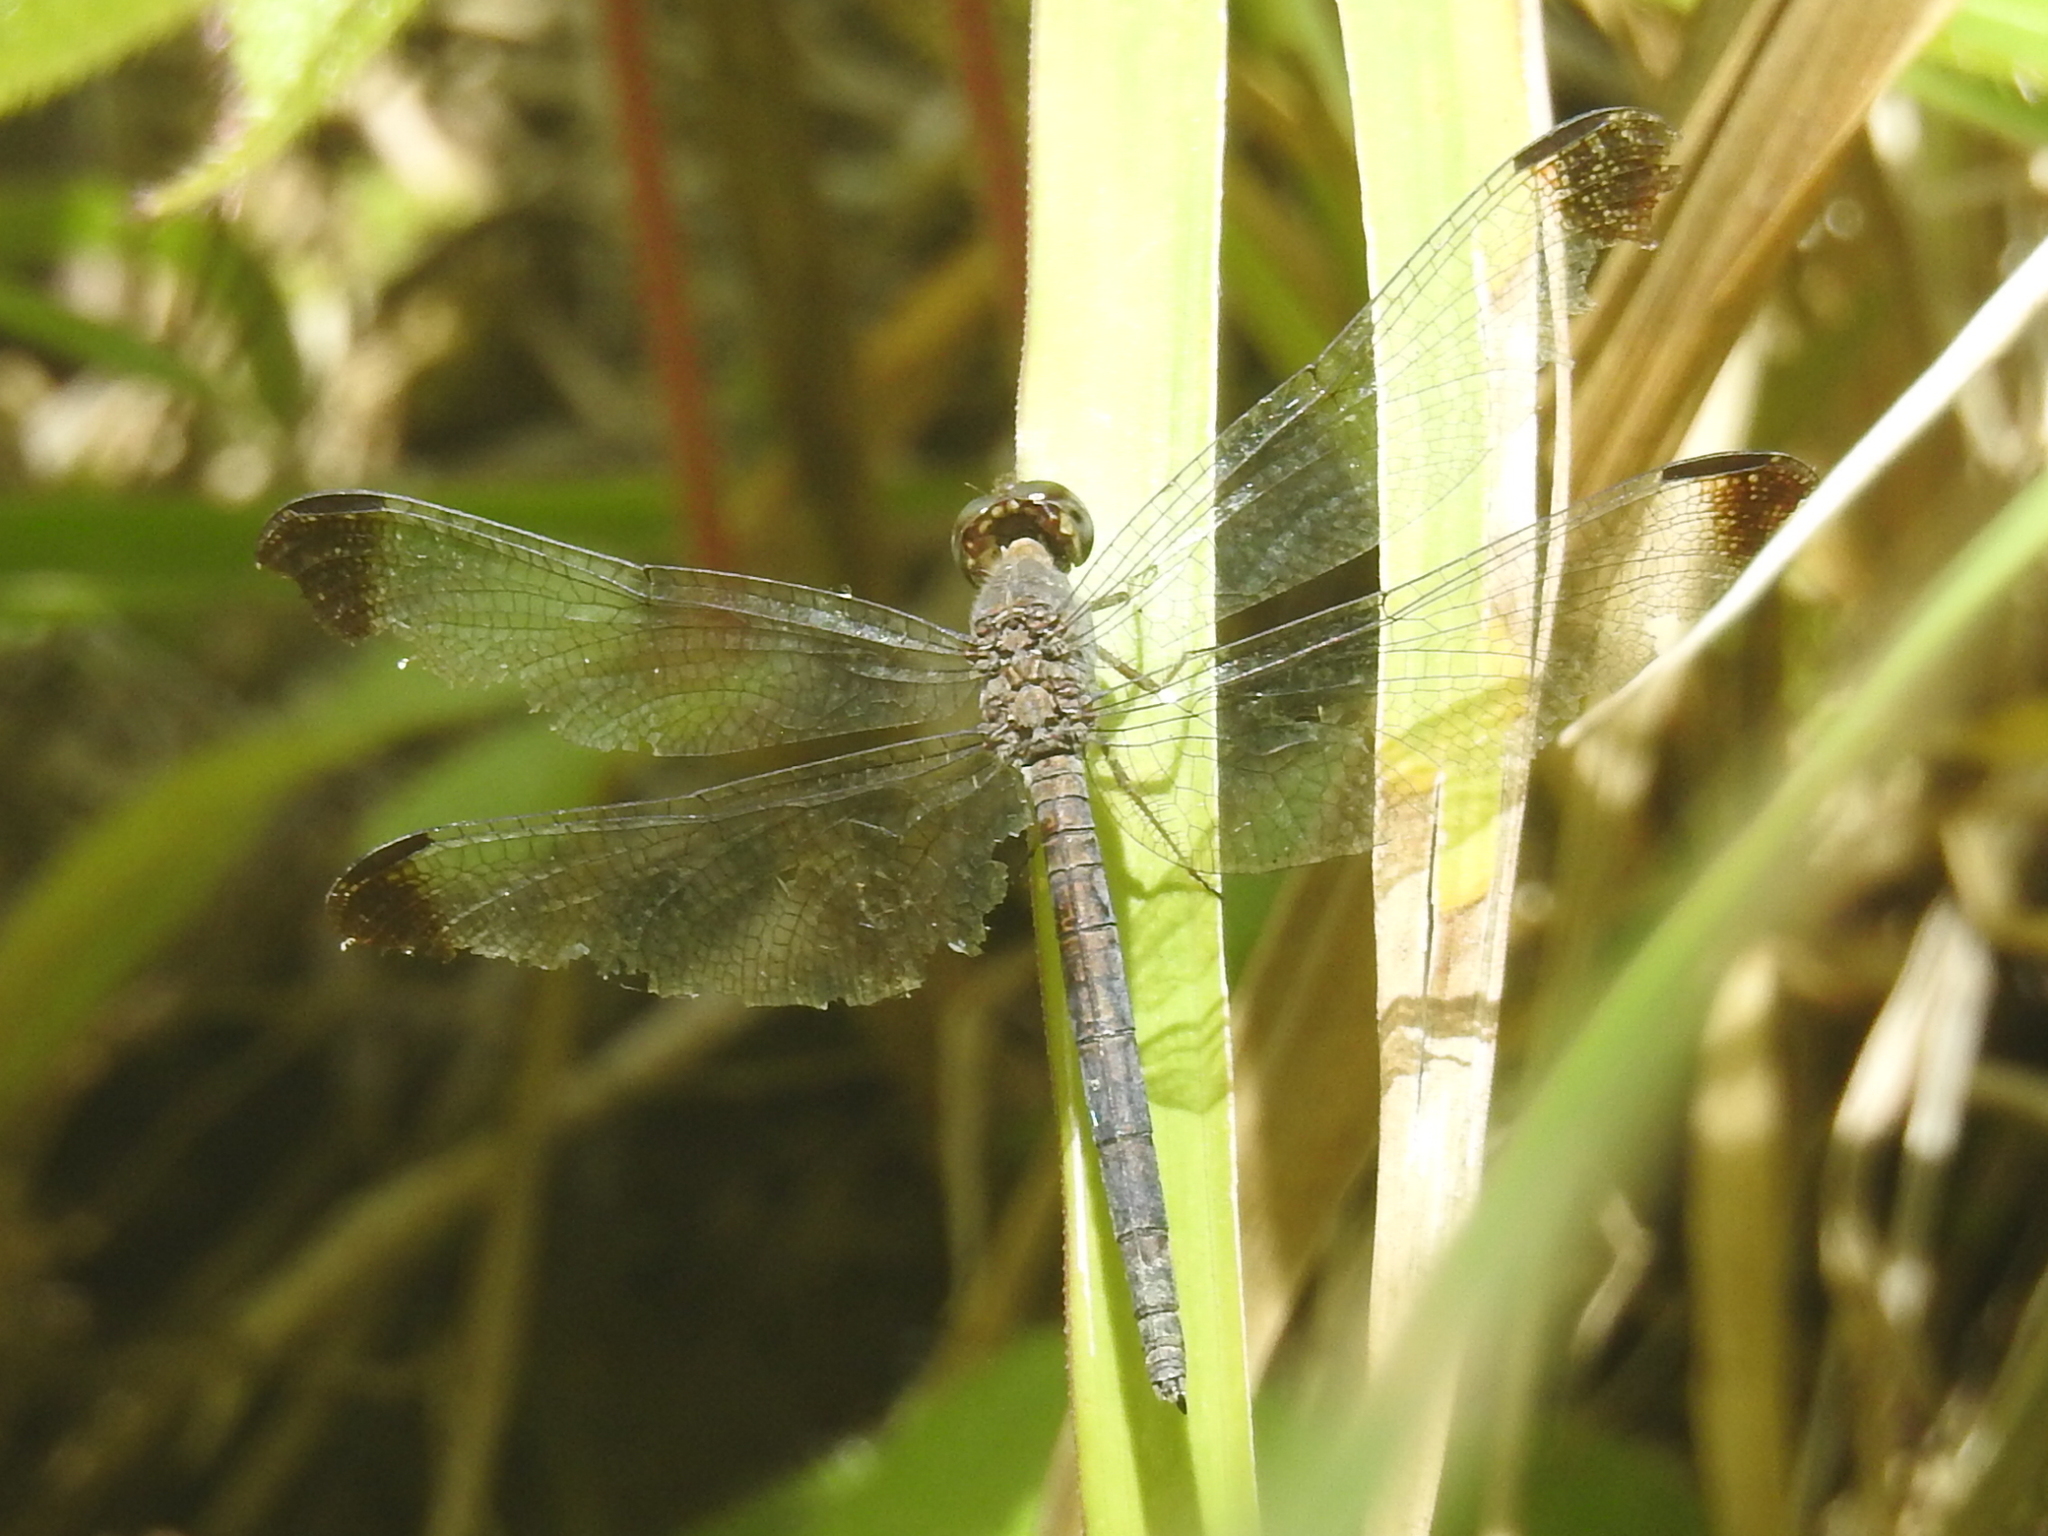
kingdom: Animalia
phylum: Arthropoda
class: Insecta
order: Odonata
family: Libellulidae
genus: Uracis
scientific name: Uracis imbuta
